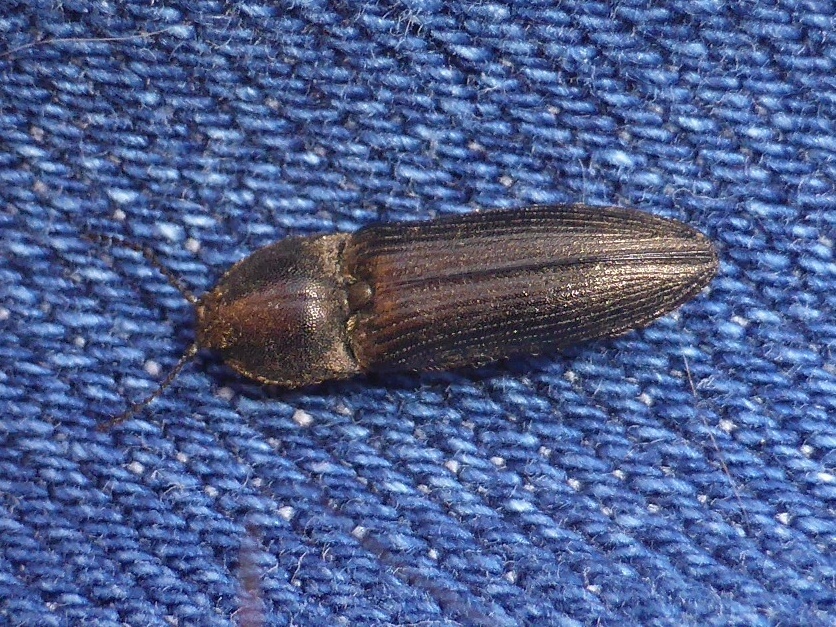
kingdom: Animalia
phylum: Arthropoda
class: Insecta
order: Coleoptera
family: Elateridae
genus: Cidnopus
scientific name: Cidnopus pilosus
